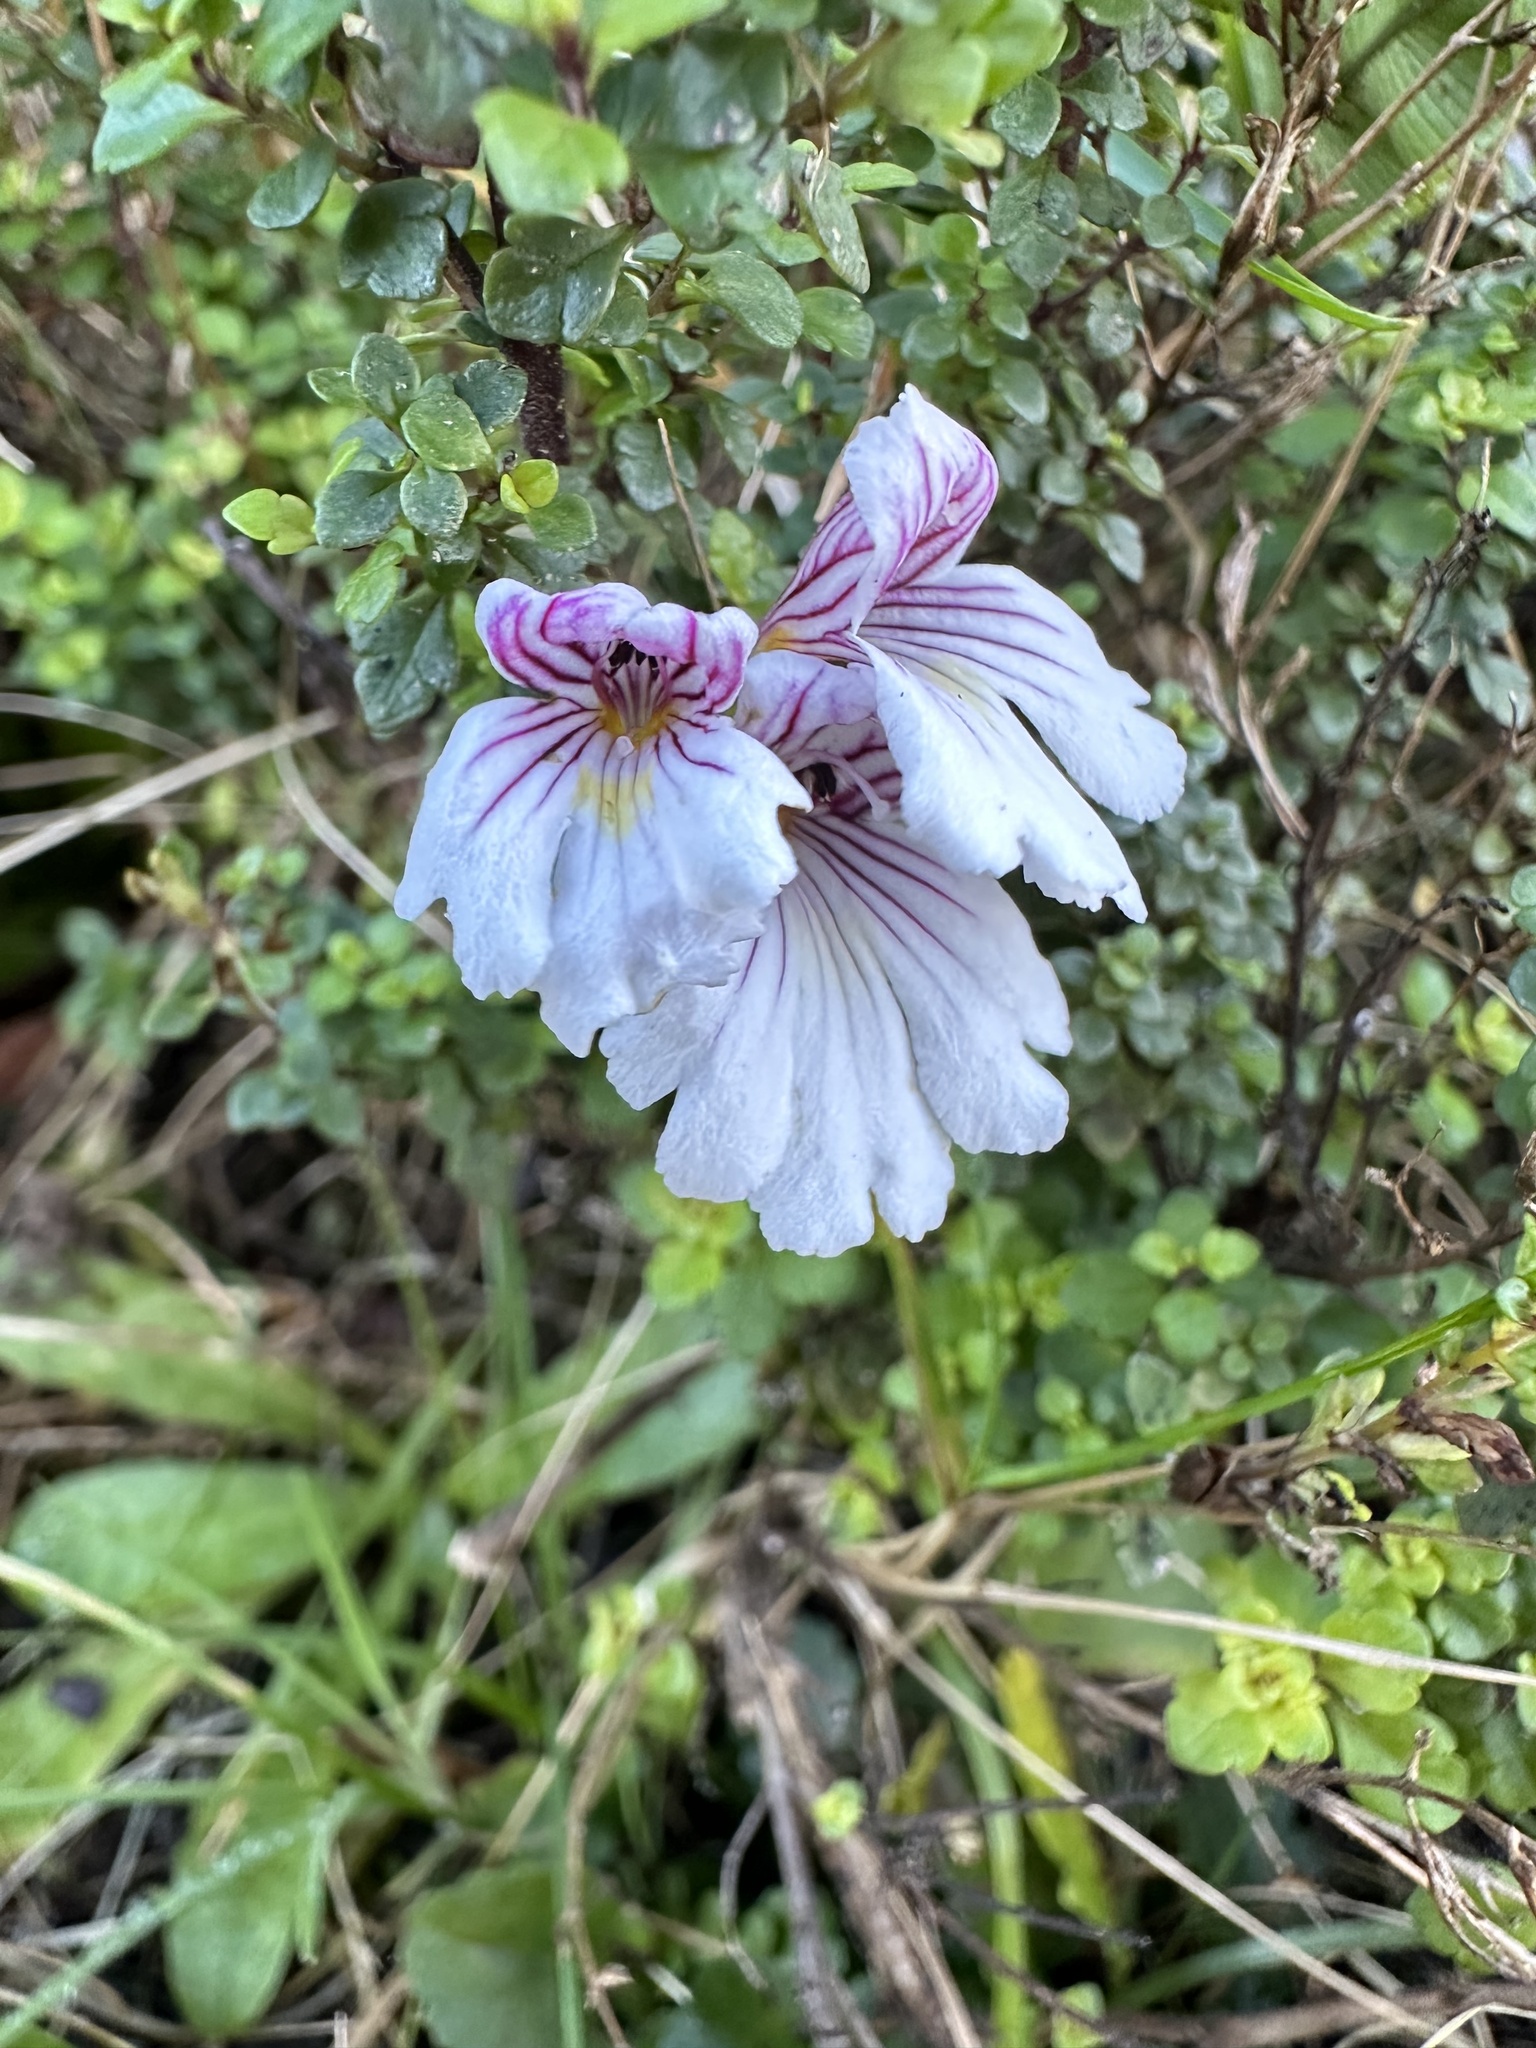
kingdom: Plantae
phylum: Tracheophyta
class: Magnoliopsida
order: Lamiales
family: Orobanchaceae
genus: Euphrasia
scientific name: Euphrasia cuneata
